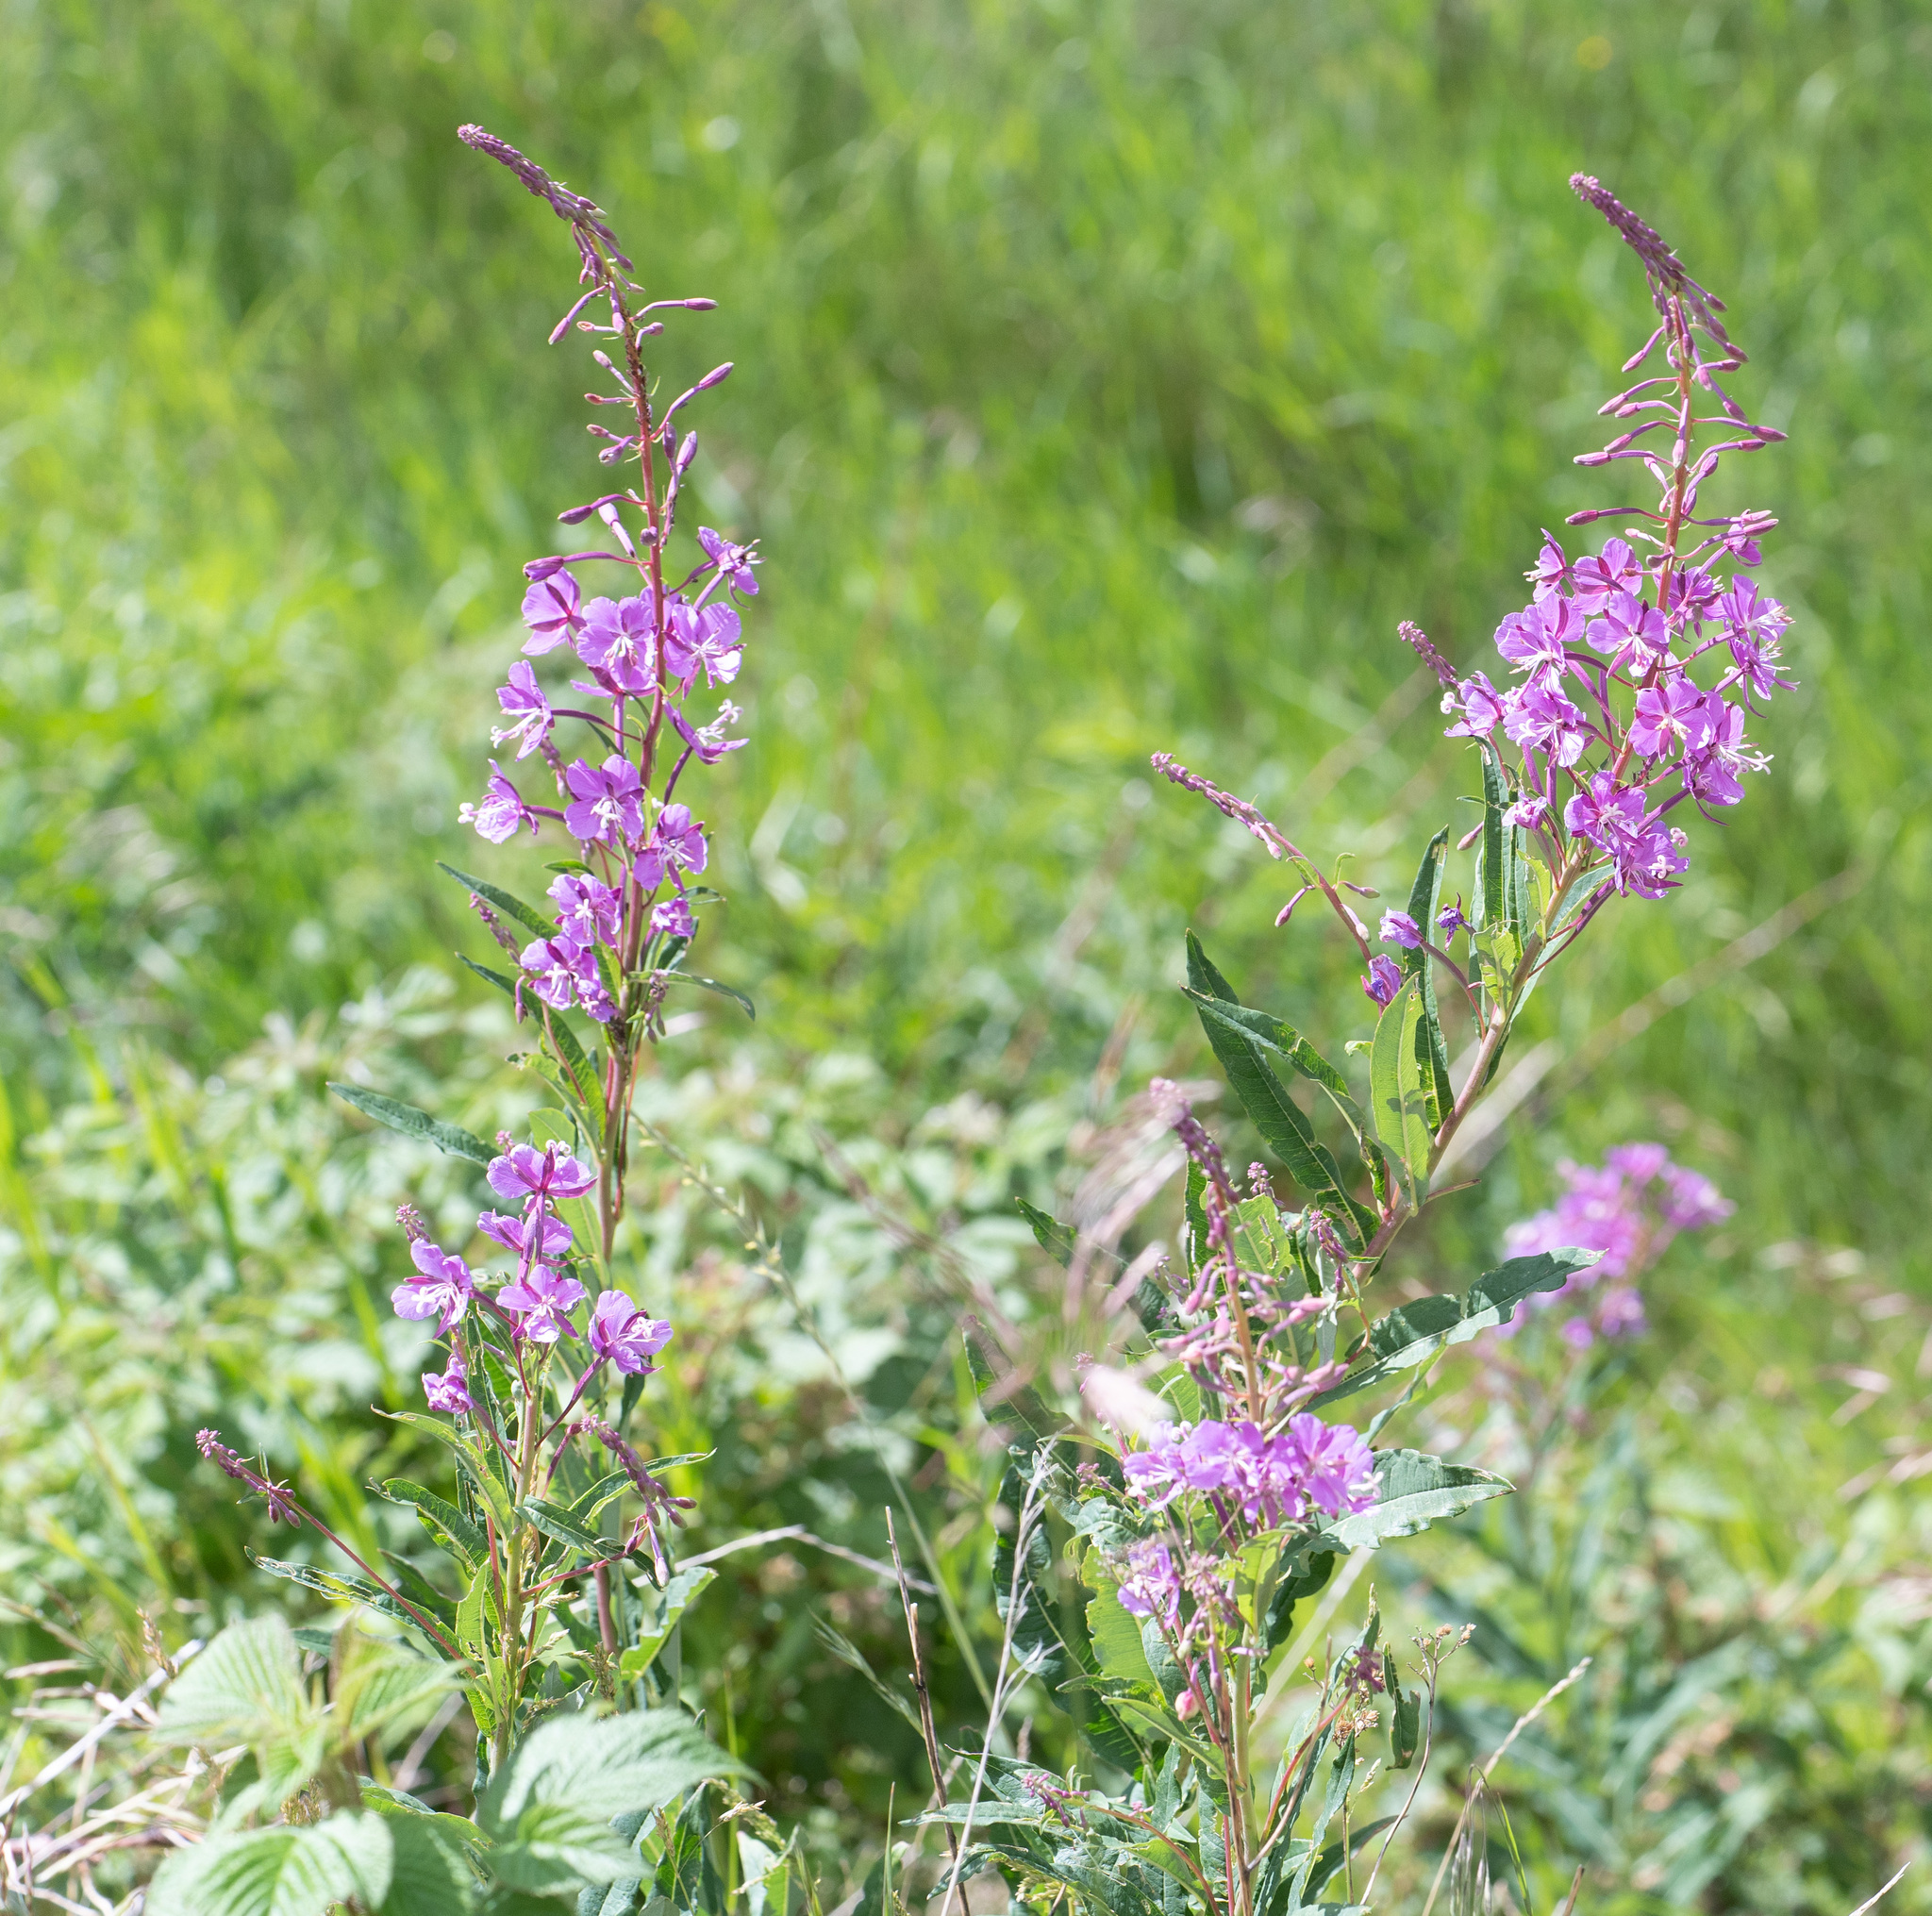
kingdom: Plantae
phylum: Tracheophyta
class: Magnoliopsida
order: Myrtales
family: Onagraceae
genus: Chamaenerion
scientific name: Chamaenerion angustifolium
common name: Fireweed
